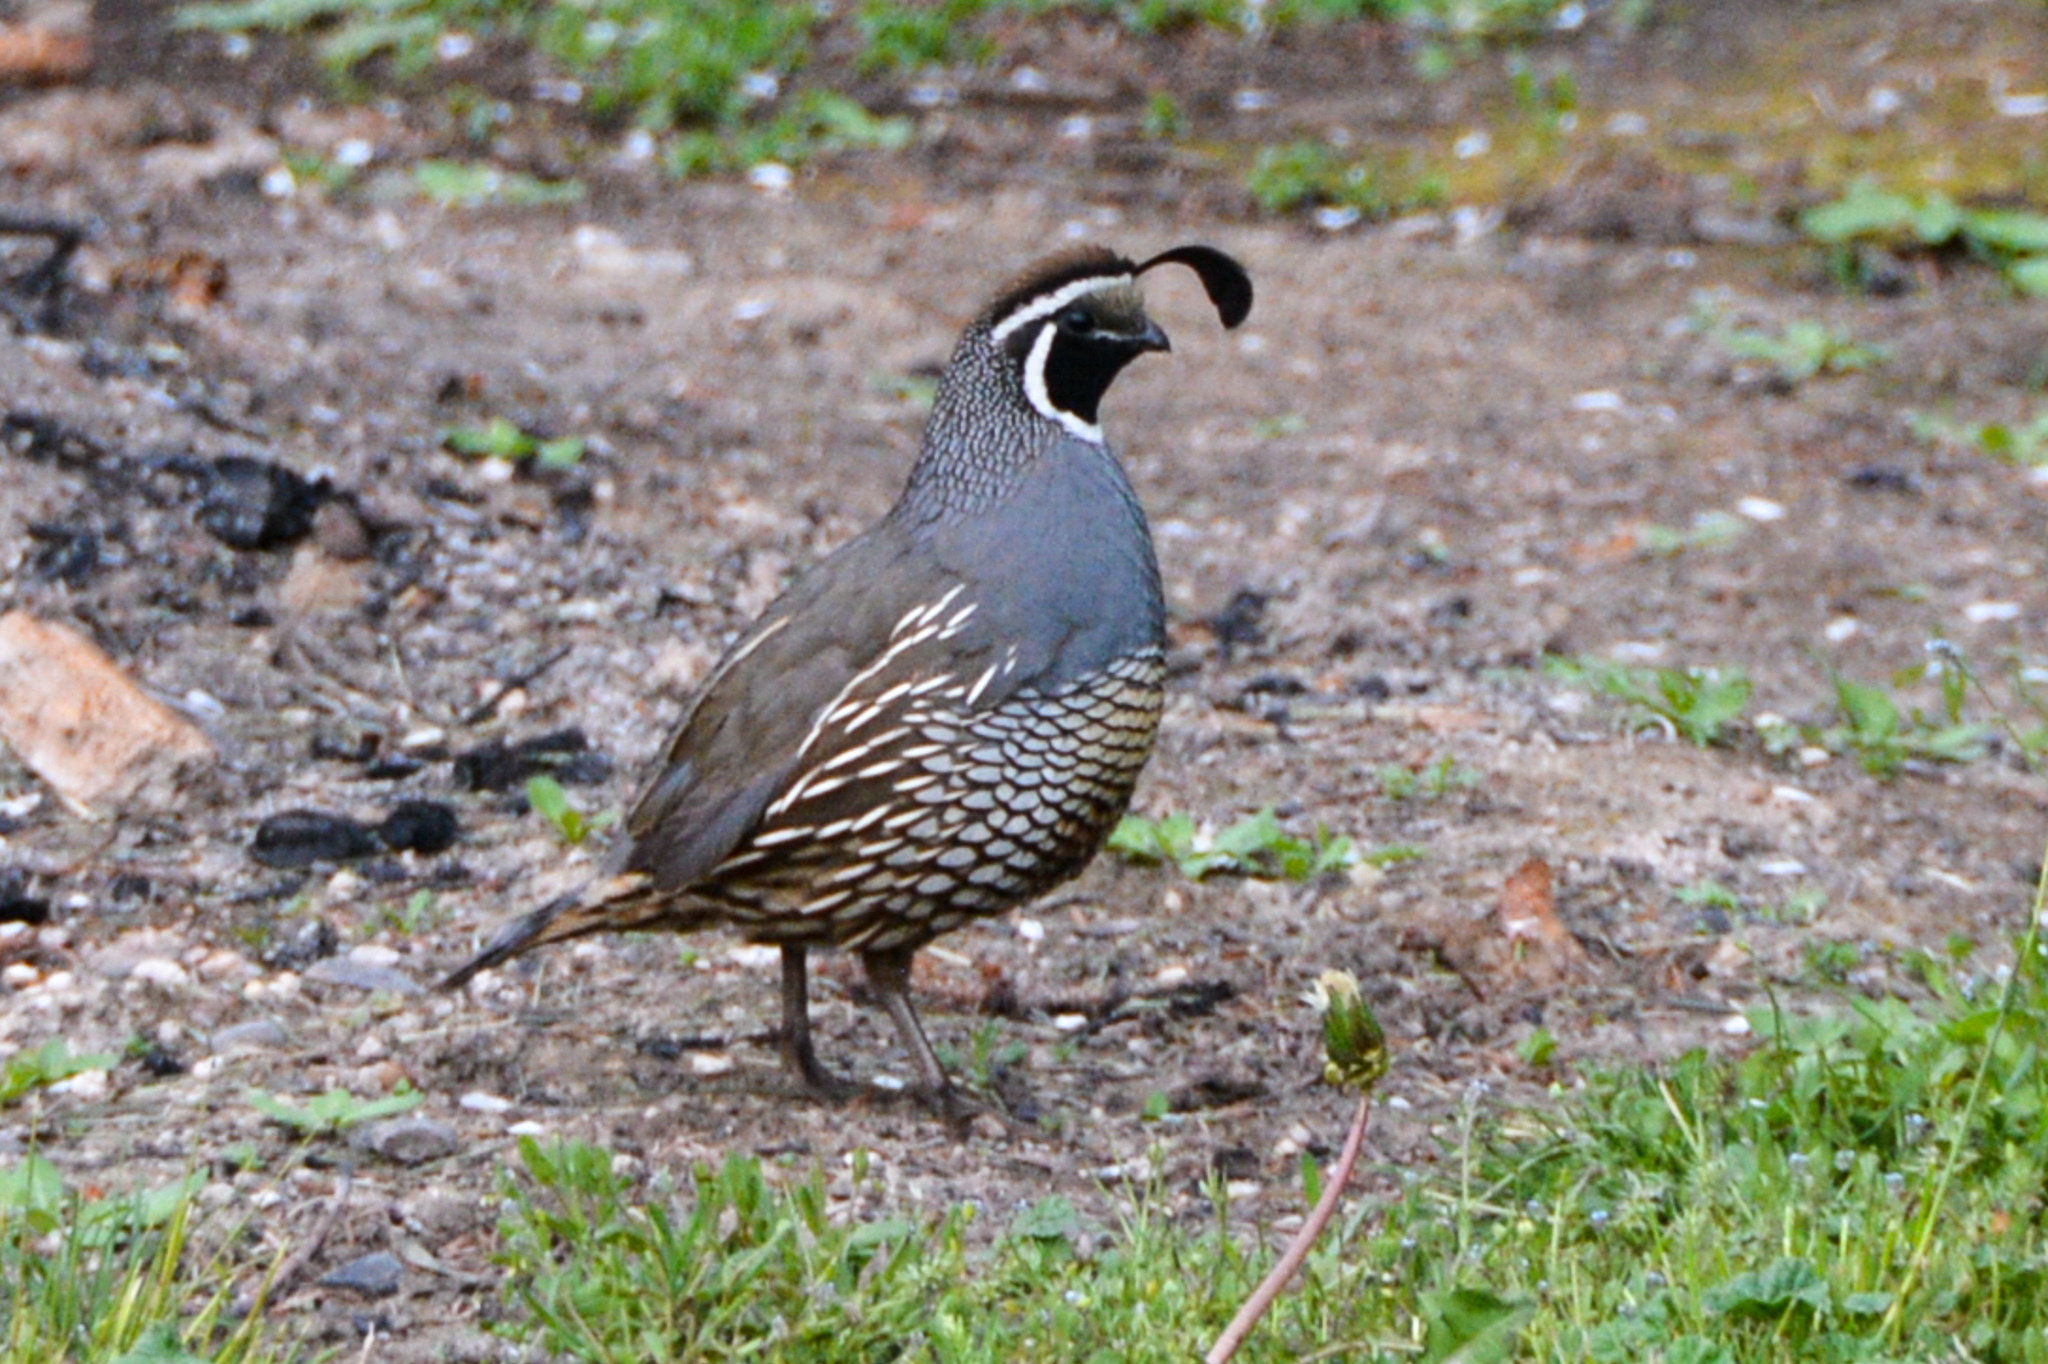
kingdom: Animalia
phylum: Chordata
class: Aves
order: Galliformes
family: Odontophoridae
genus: Callipepla
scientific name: Callipepla californica
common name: California quail
